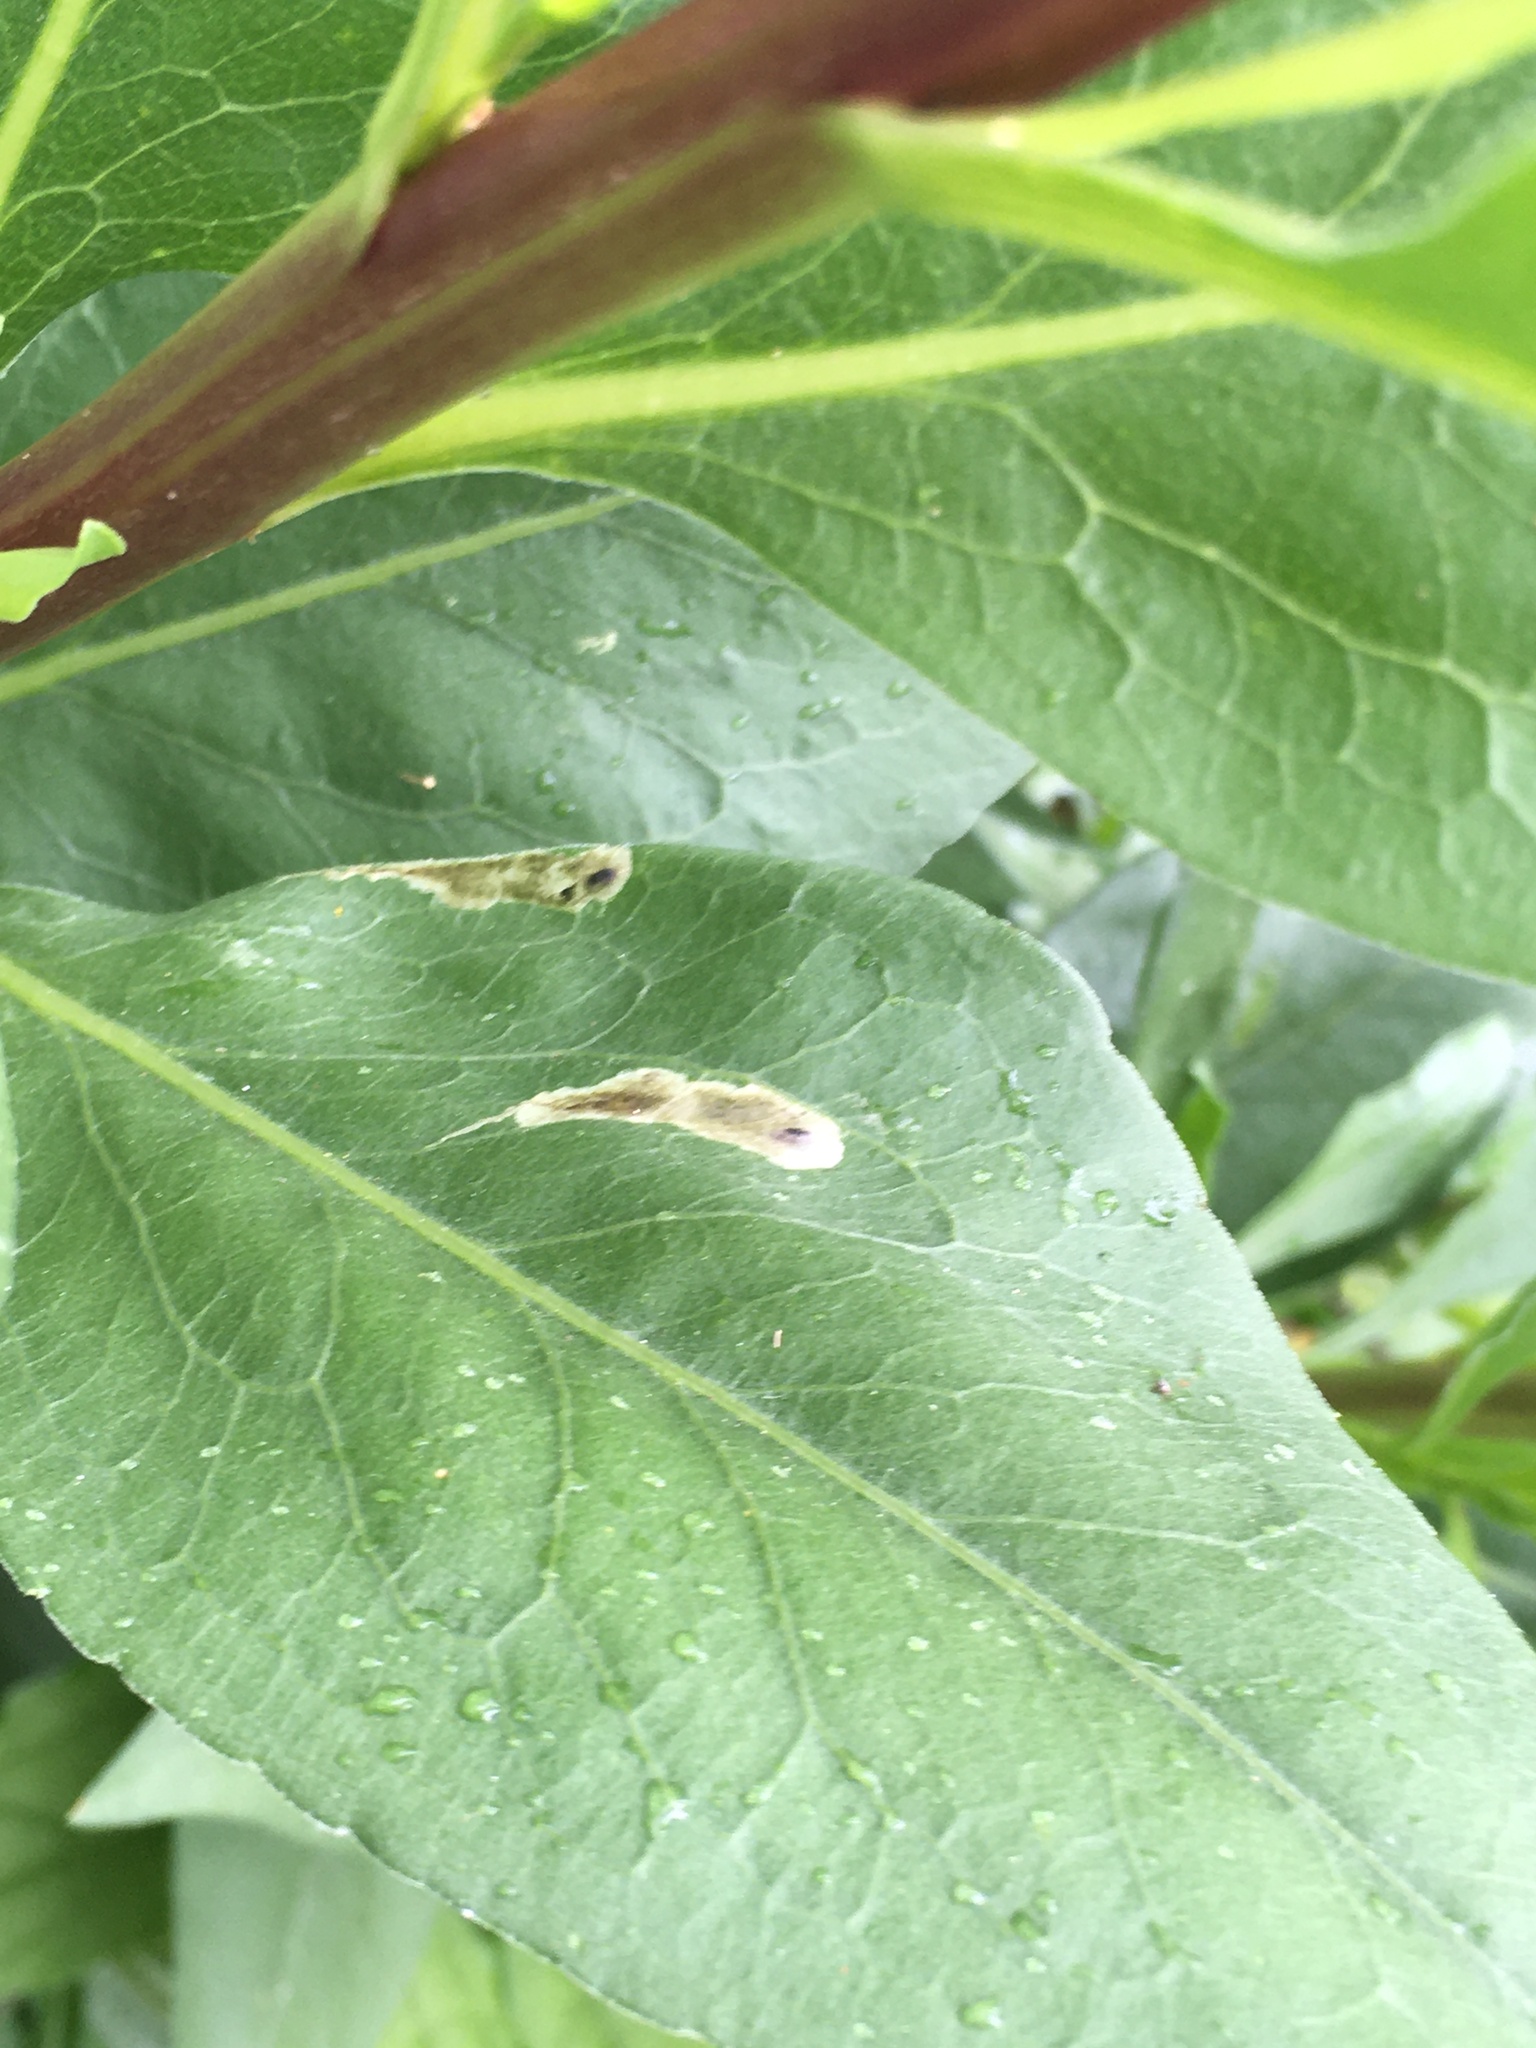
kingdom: Animalia
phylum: Arthropoda
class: Insecta
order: Diptera
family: Agromyzidae
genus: Calycomyza
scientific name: Calycomyza solidaginis
